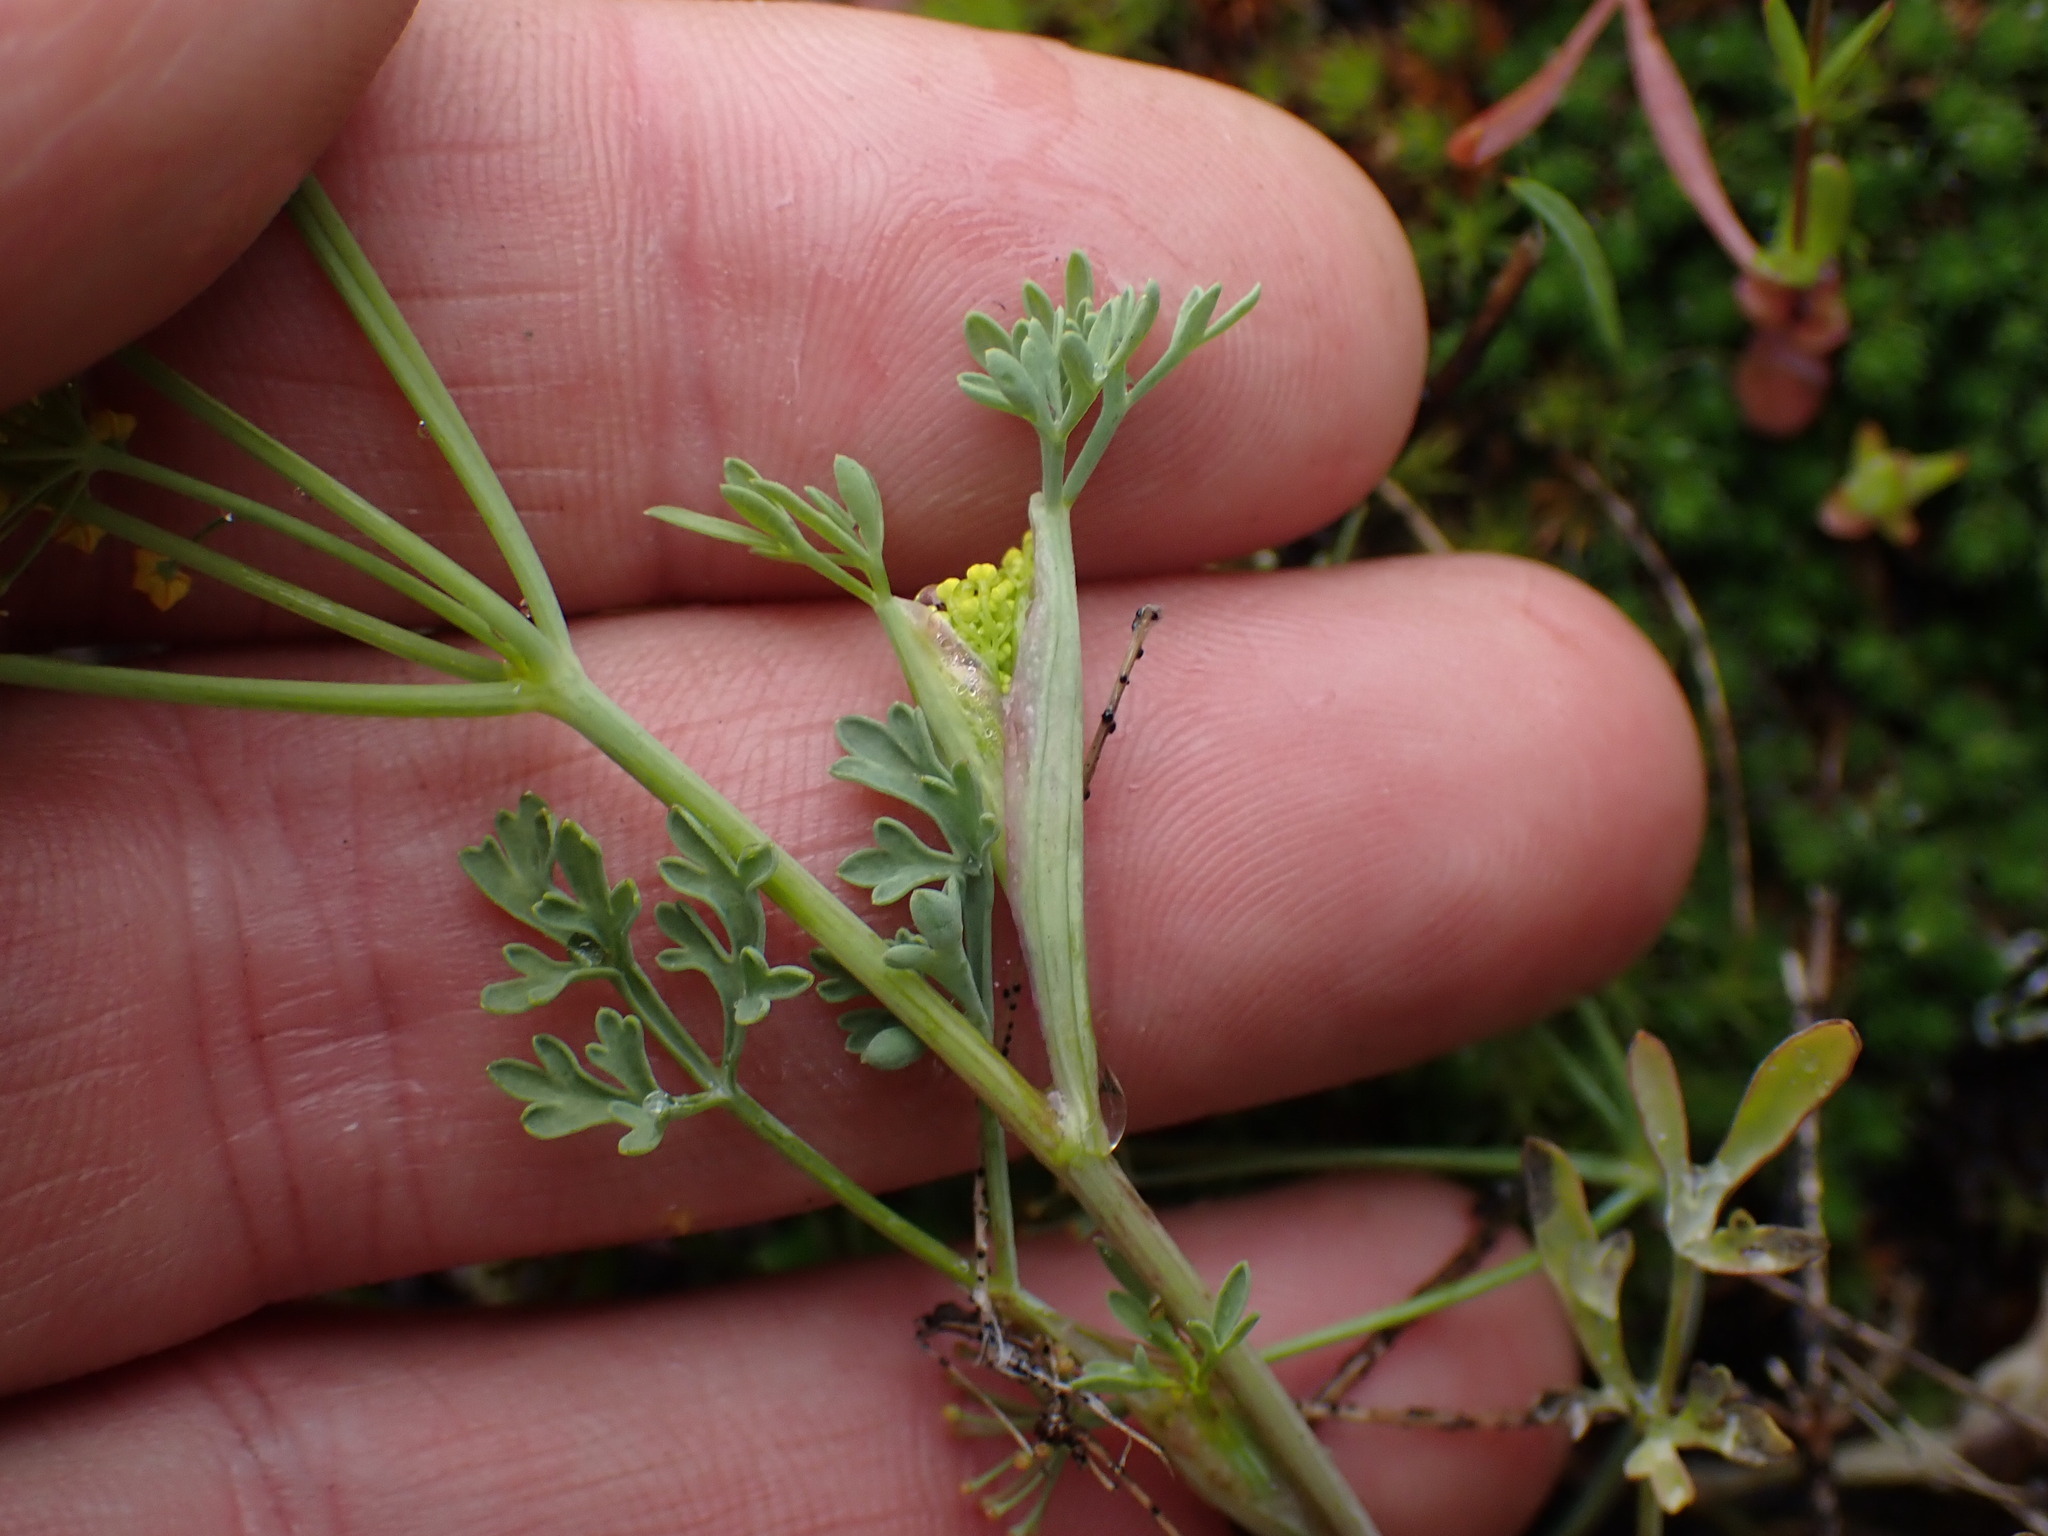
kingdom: Plantae
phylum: Tracheophyta
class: Magnoliopsida
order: Apiales
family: Apiaceae
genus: Lomatium
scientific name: Lomatium ambiguum
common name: Lacy lomatium
